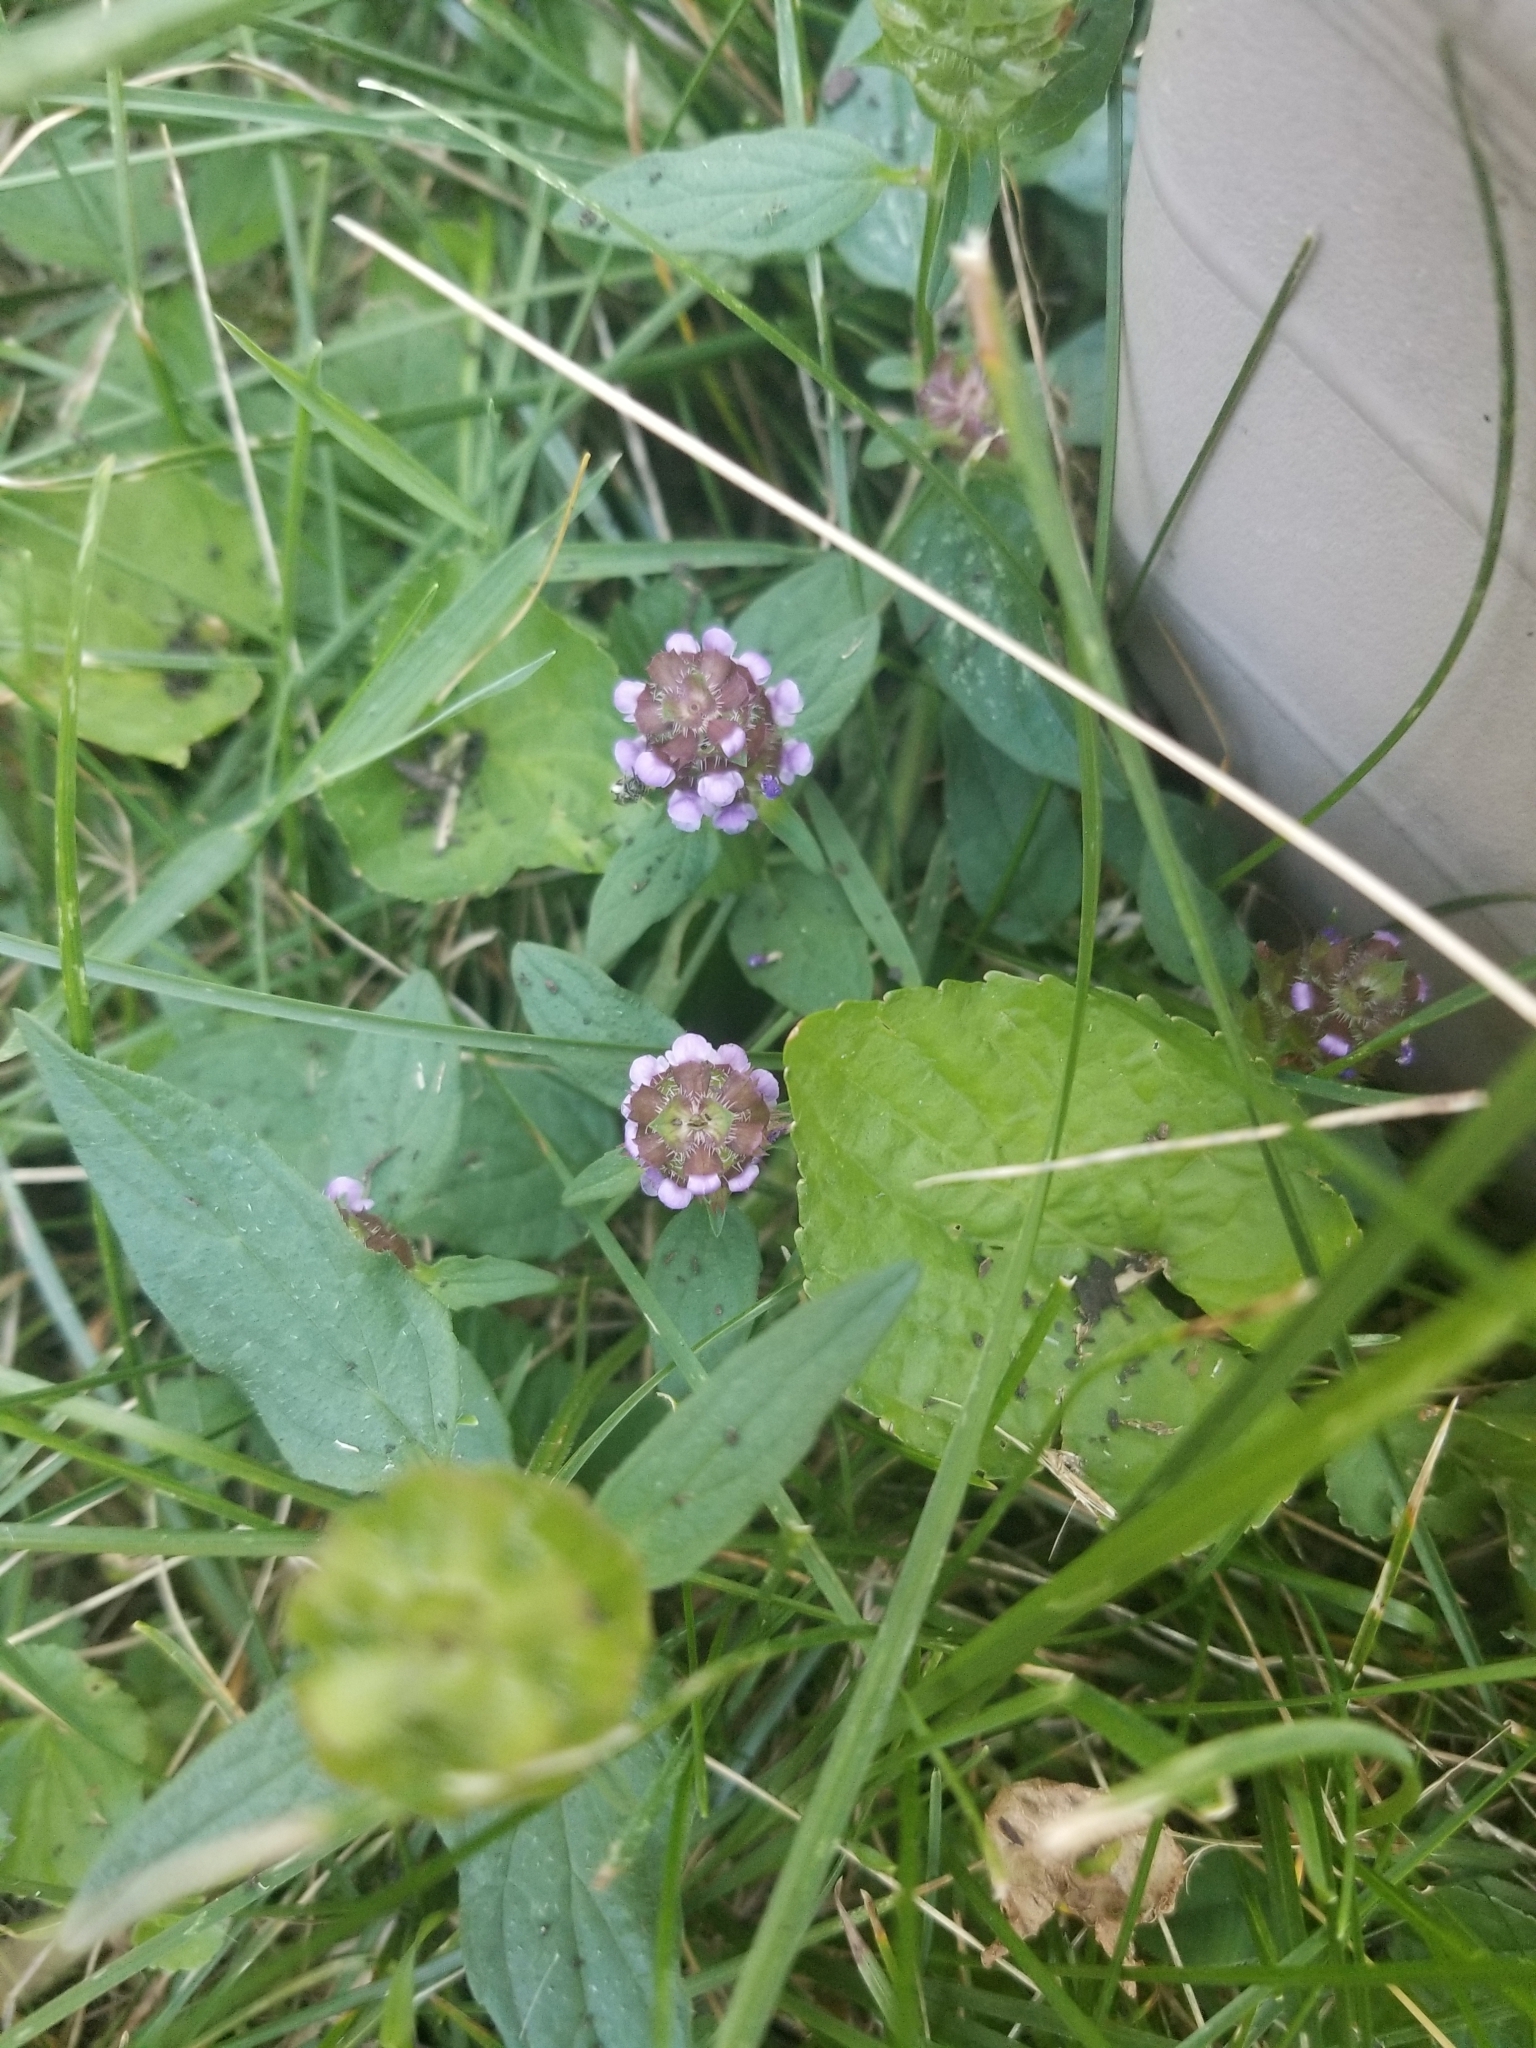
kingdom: Plantae
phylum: Tracheophyta
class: Magnoliopsida
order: Lamiales
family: Lamiaceae
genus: Prunella
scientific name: Prunella vulgaris
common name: Heal-all
